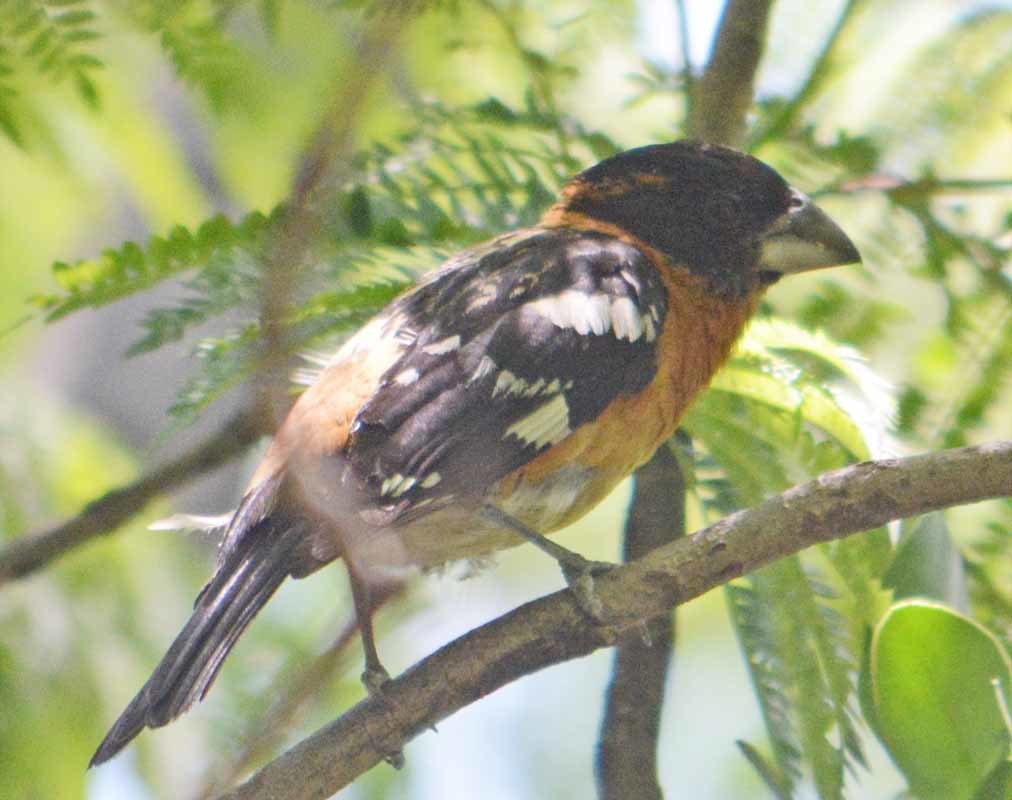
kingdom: Animalia
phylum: Chordata
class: Aves
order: Passeriformes
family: Cardinalidae
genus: Pheucticus
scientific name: Pheucticus melanocephalus
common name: Black-headed grosbeak
